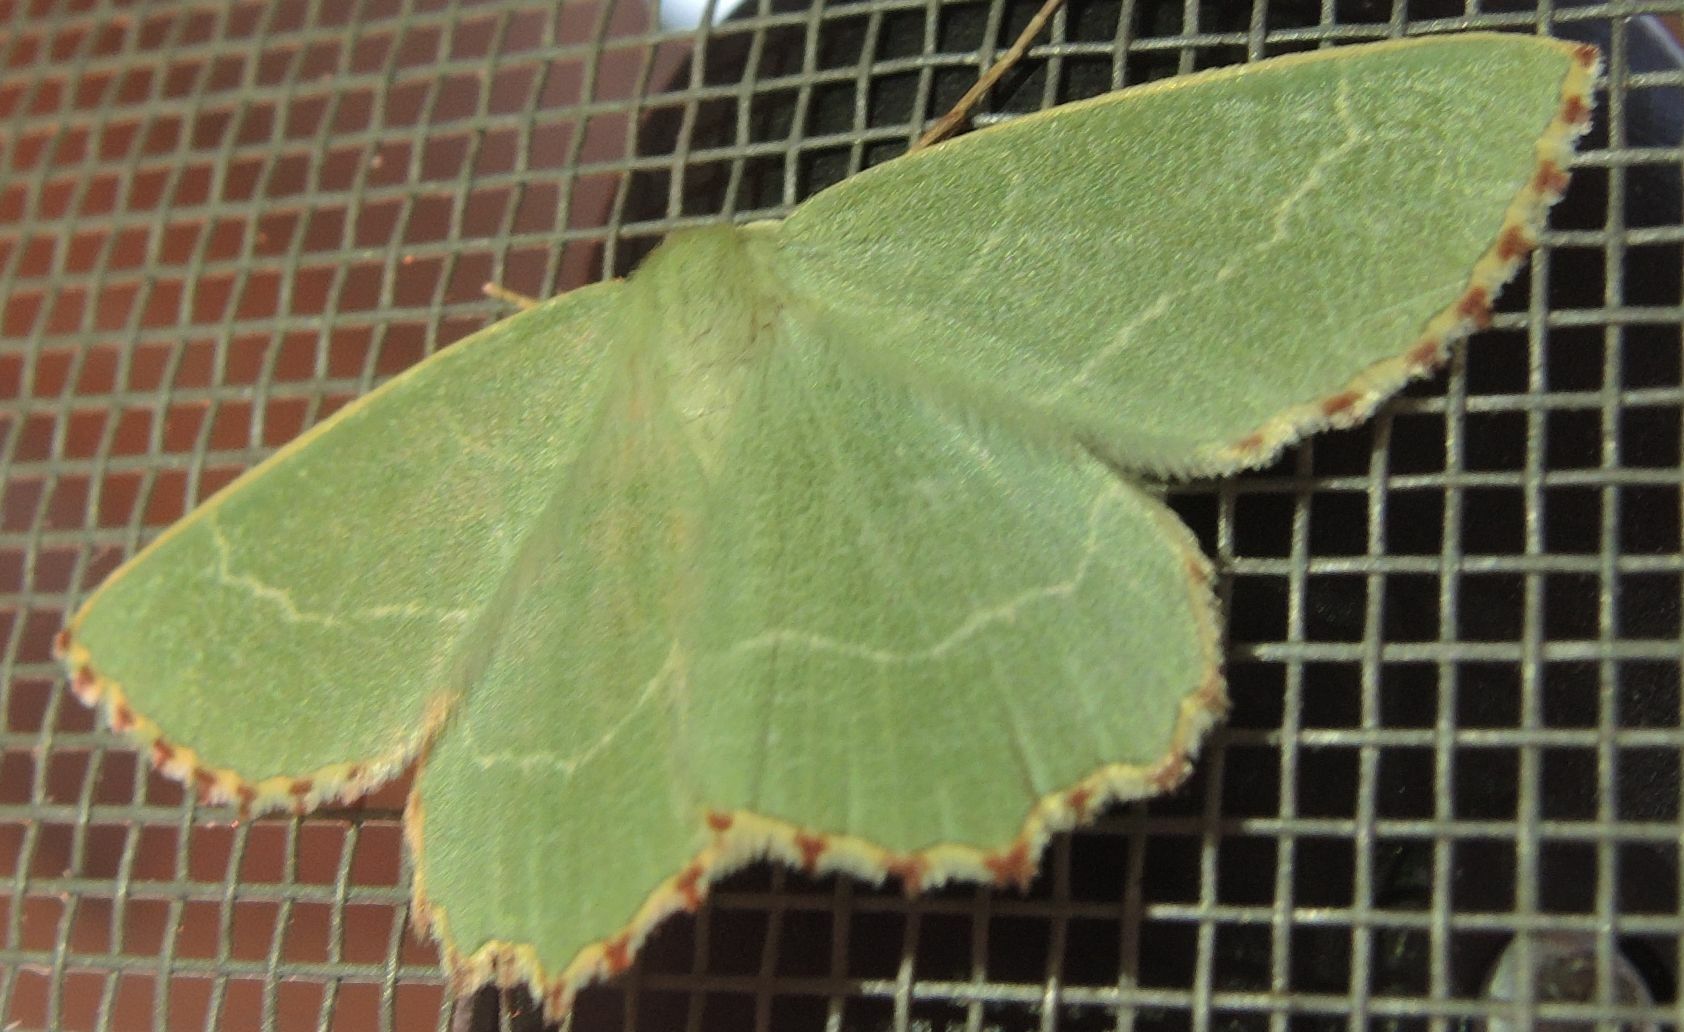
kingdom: Animalia
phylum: Arthropoda
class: Insecta
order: Lepidoptera
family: Geometridae
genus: Thalera
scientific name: Thalera fimbrialis
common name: Sussex emerald
